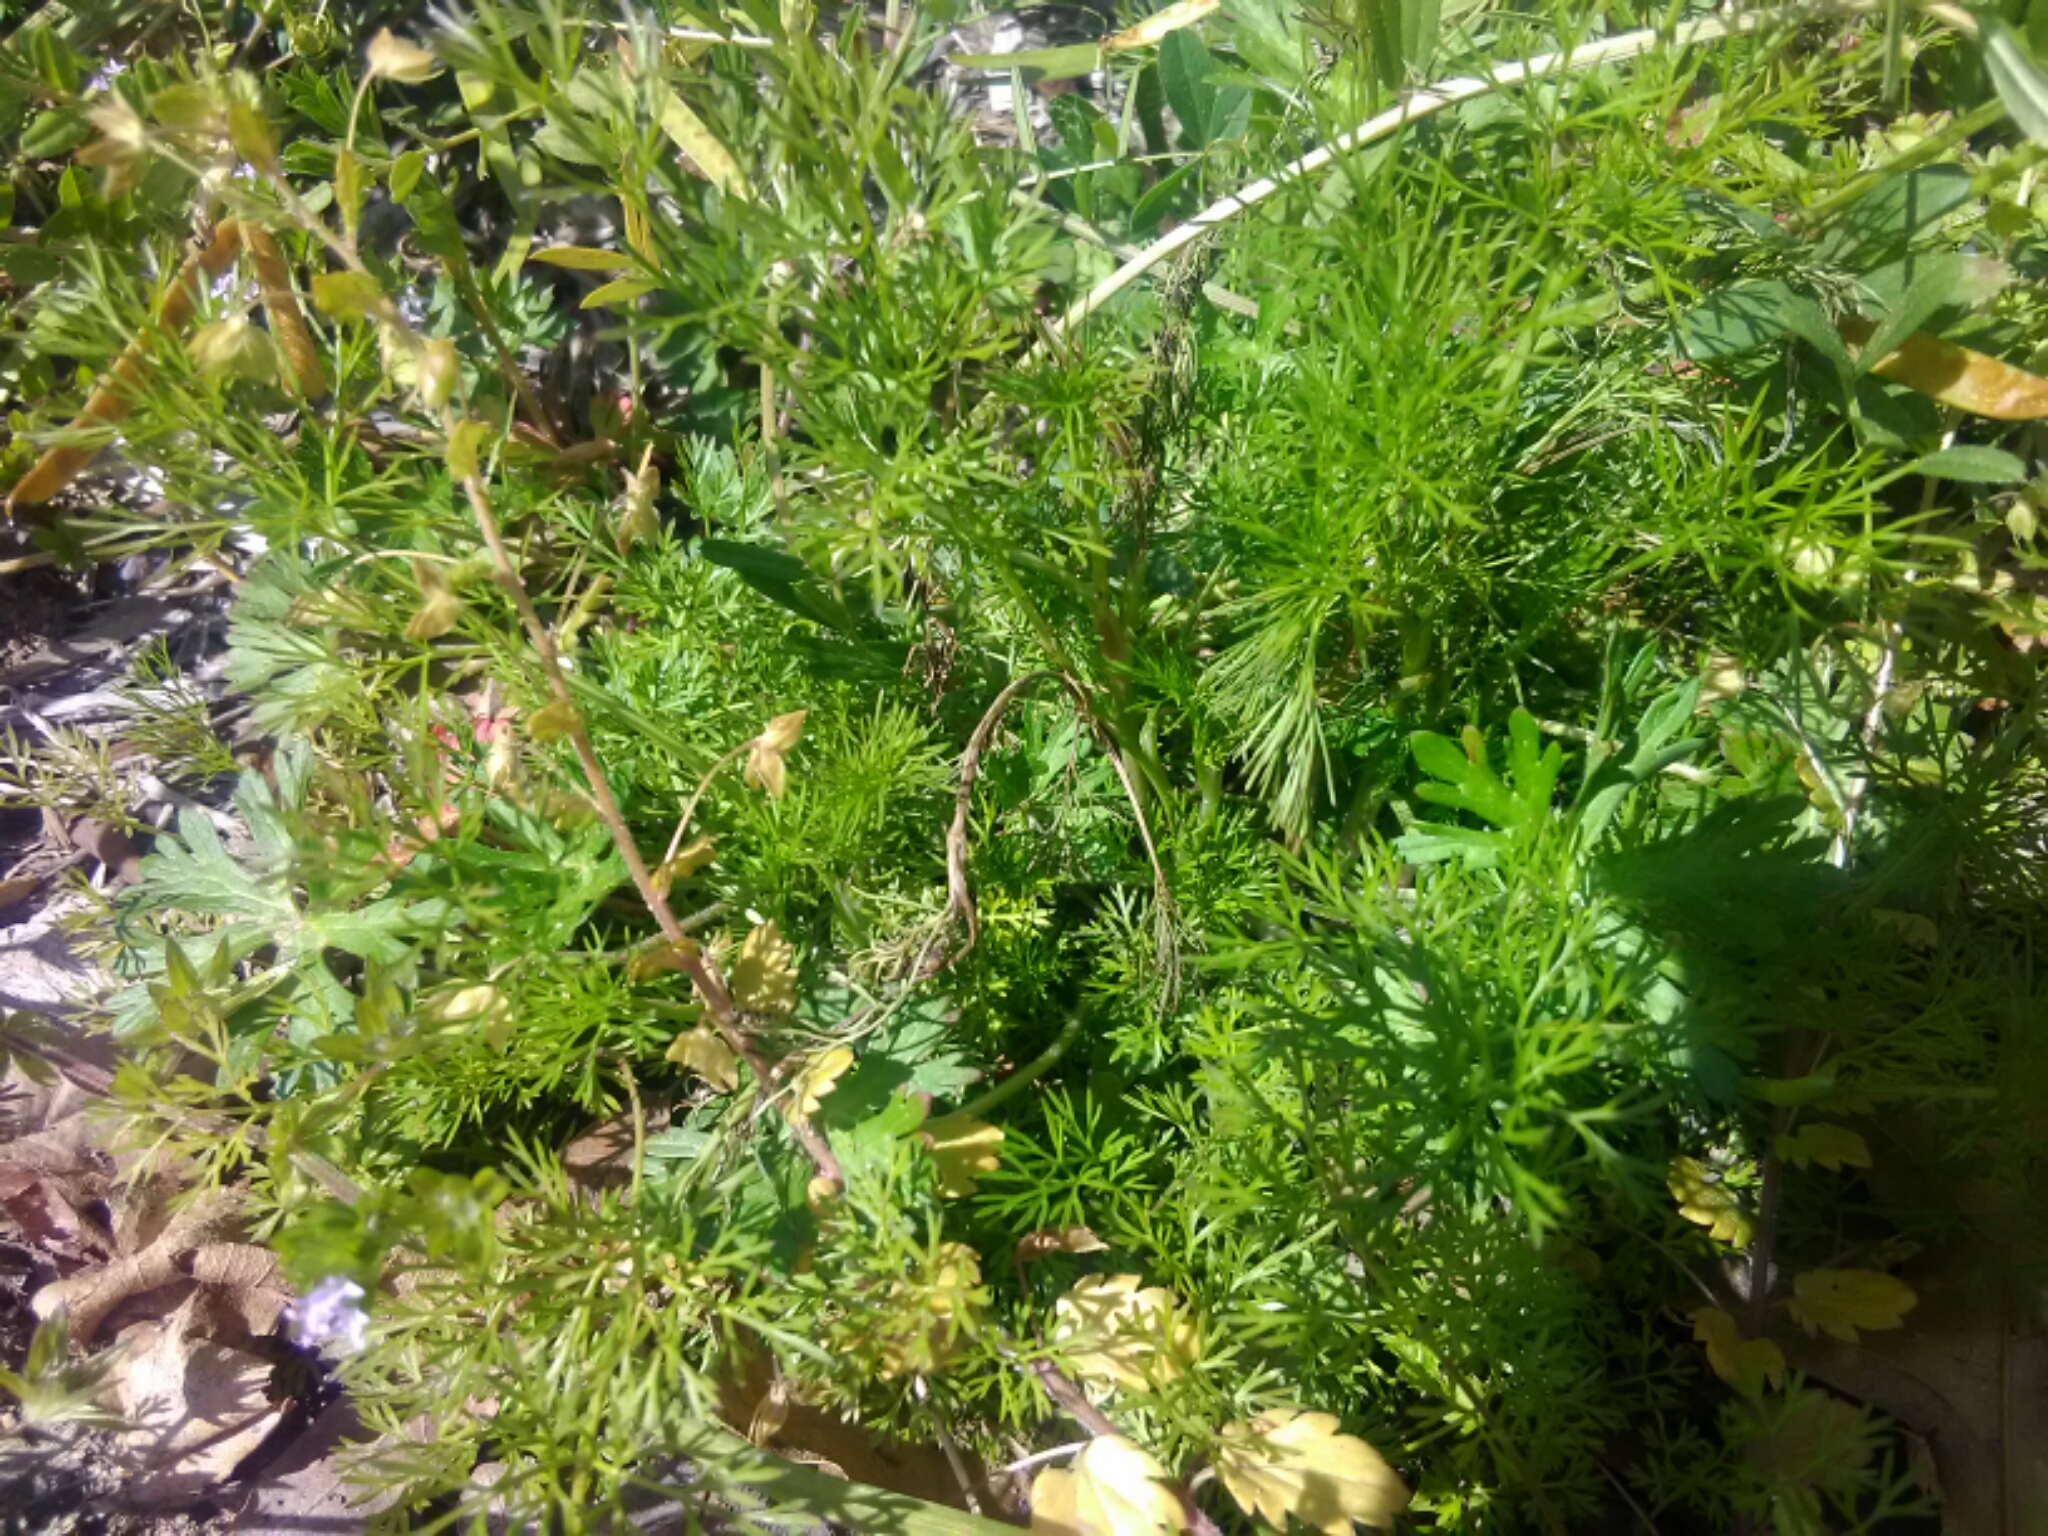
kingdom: Plantae
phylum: Tracheophyta
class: Magnoliopsida
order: Asterales
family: Asteraceae
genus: Eupatorium
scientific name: Eupatorium capillifolium
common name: Dog-fennel
